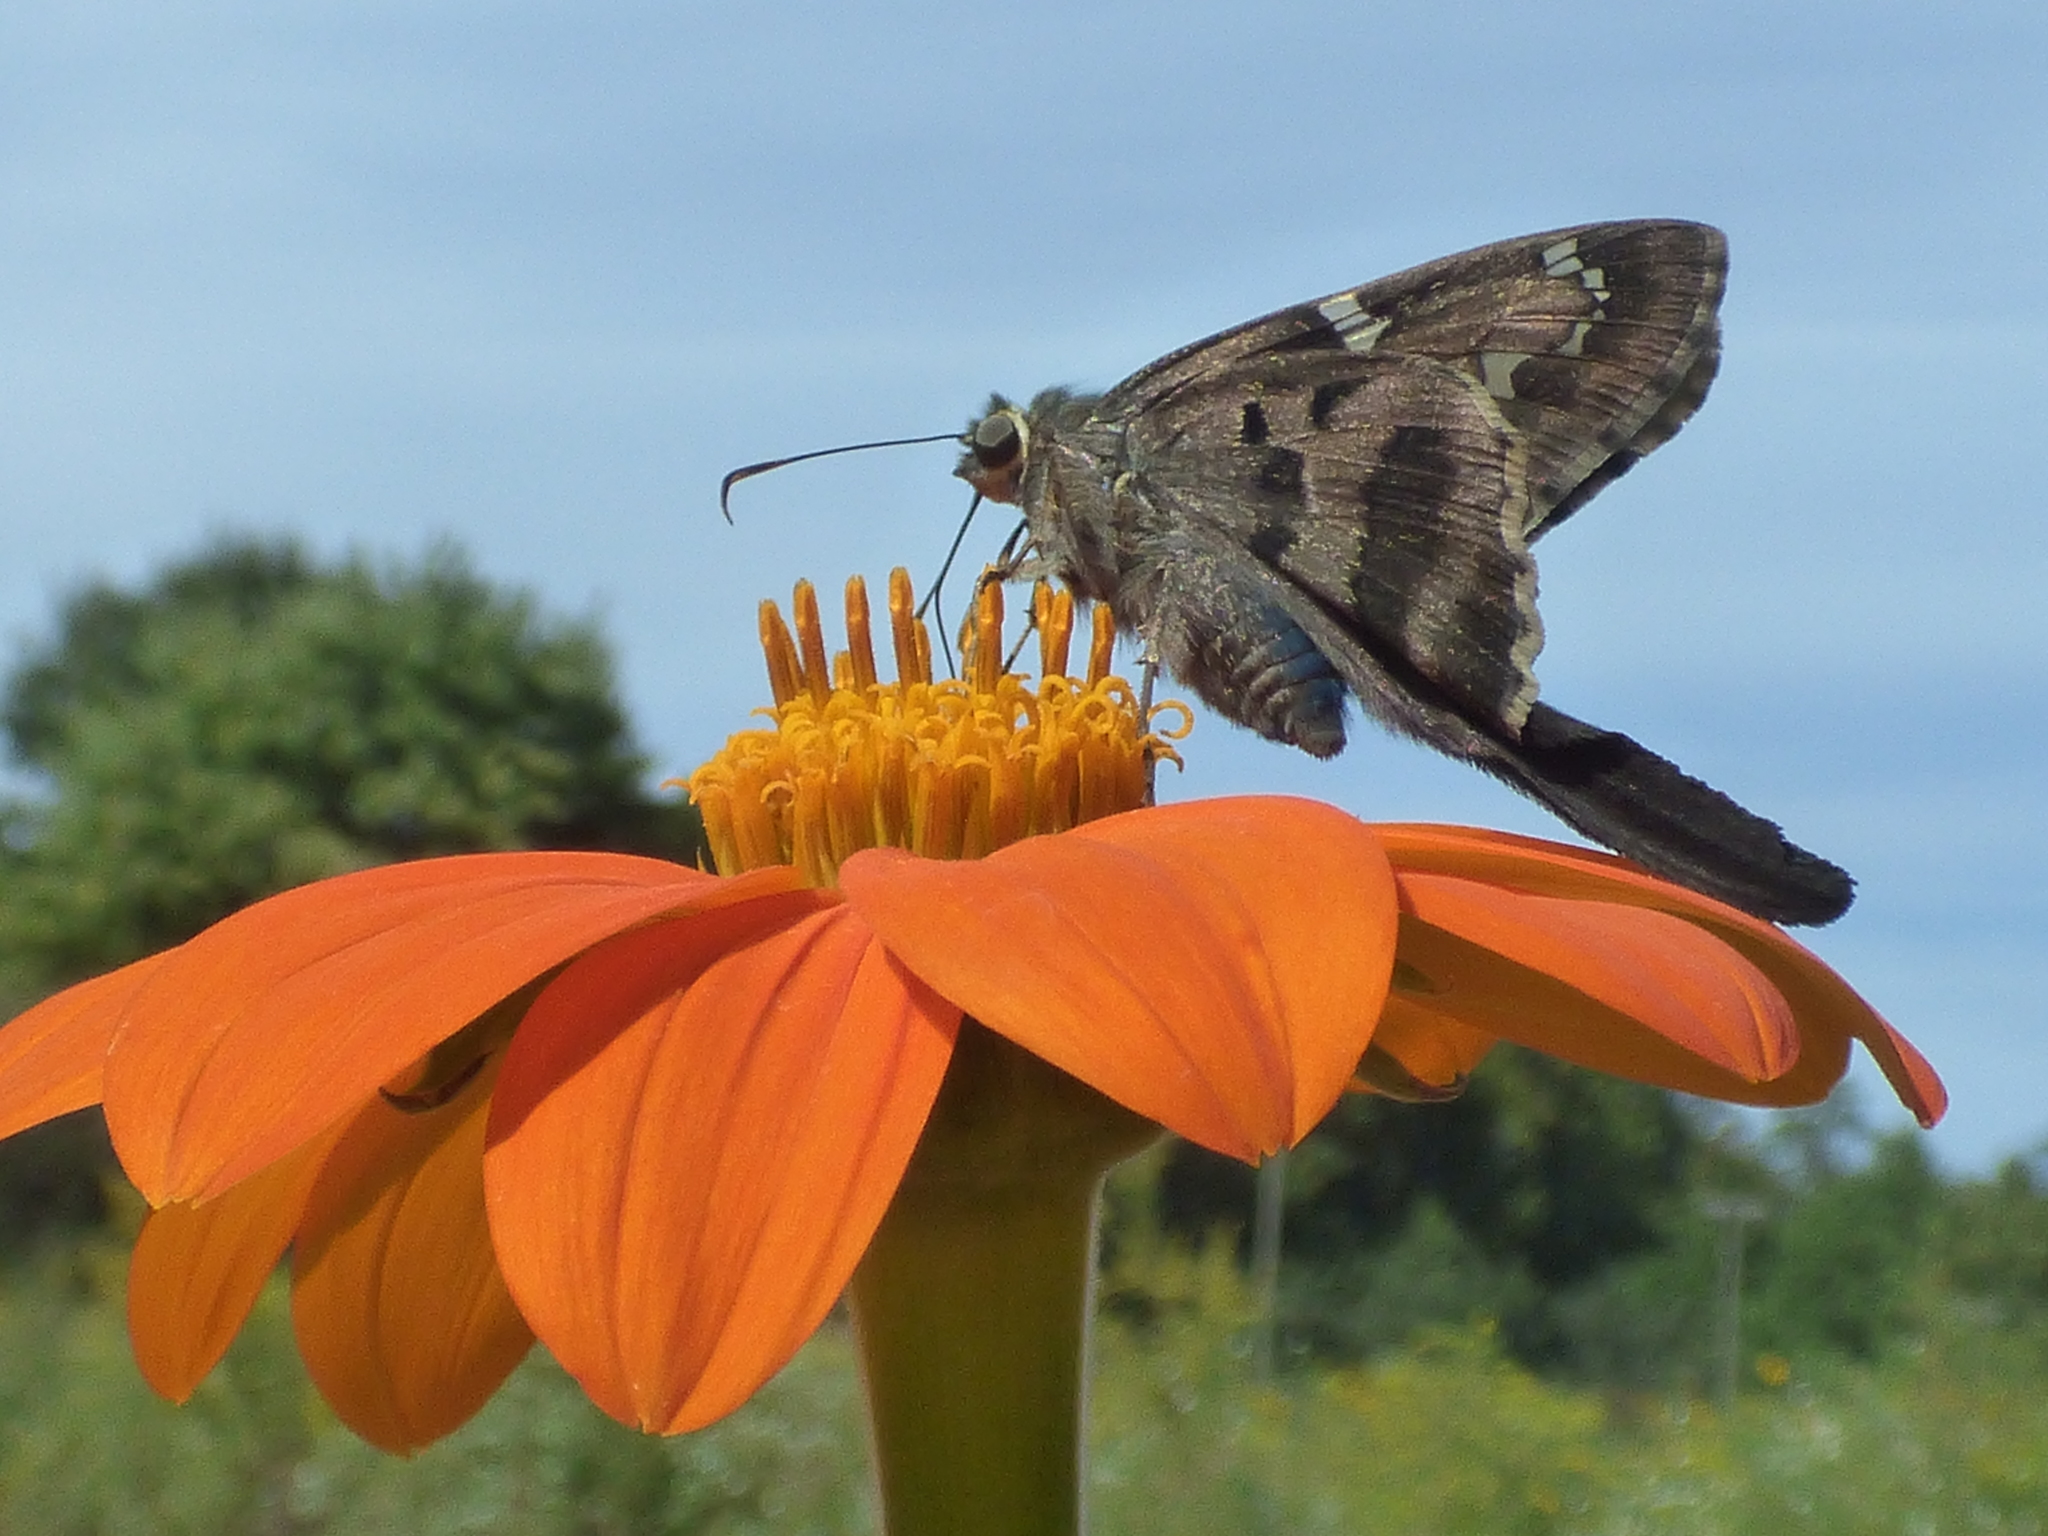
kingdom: Animalia
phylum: Arthropoda
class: Insecta
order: Lepidoptera
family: Hesperiidae
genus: Urbanus
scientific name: Urbanus proteus
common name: Long-tailed skipper
